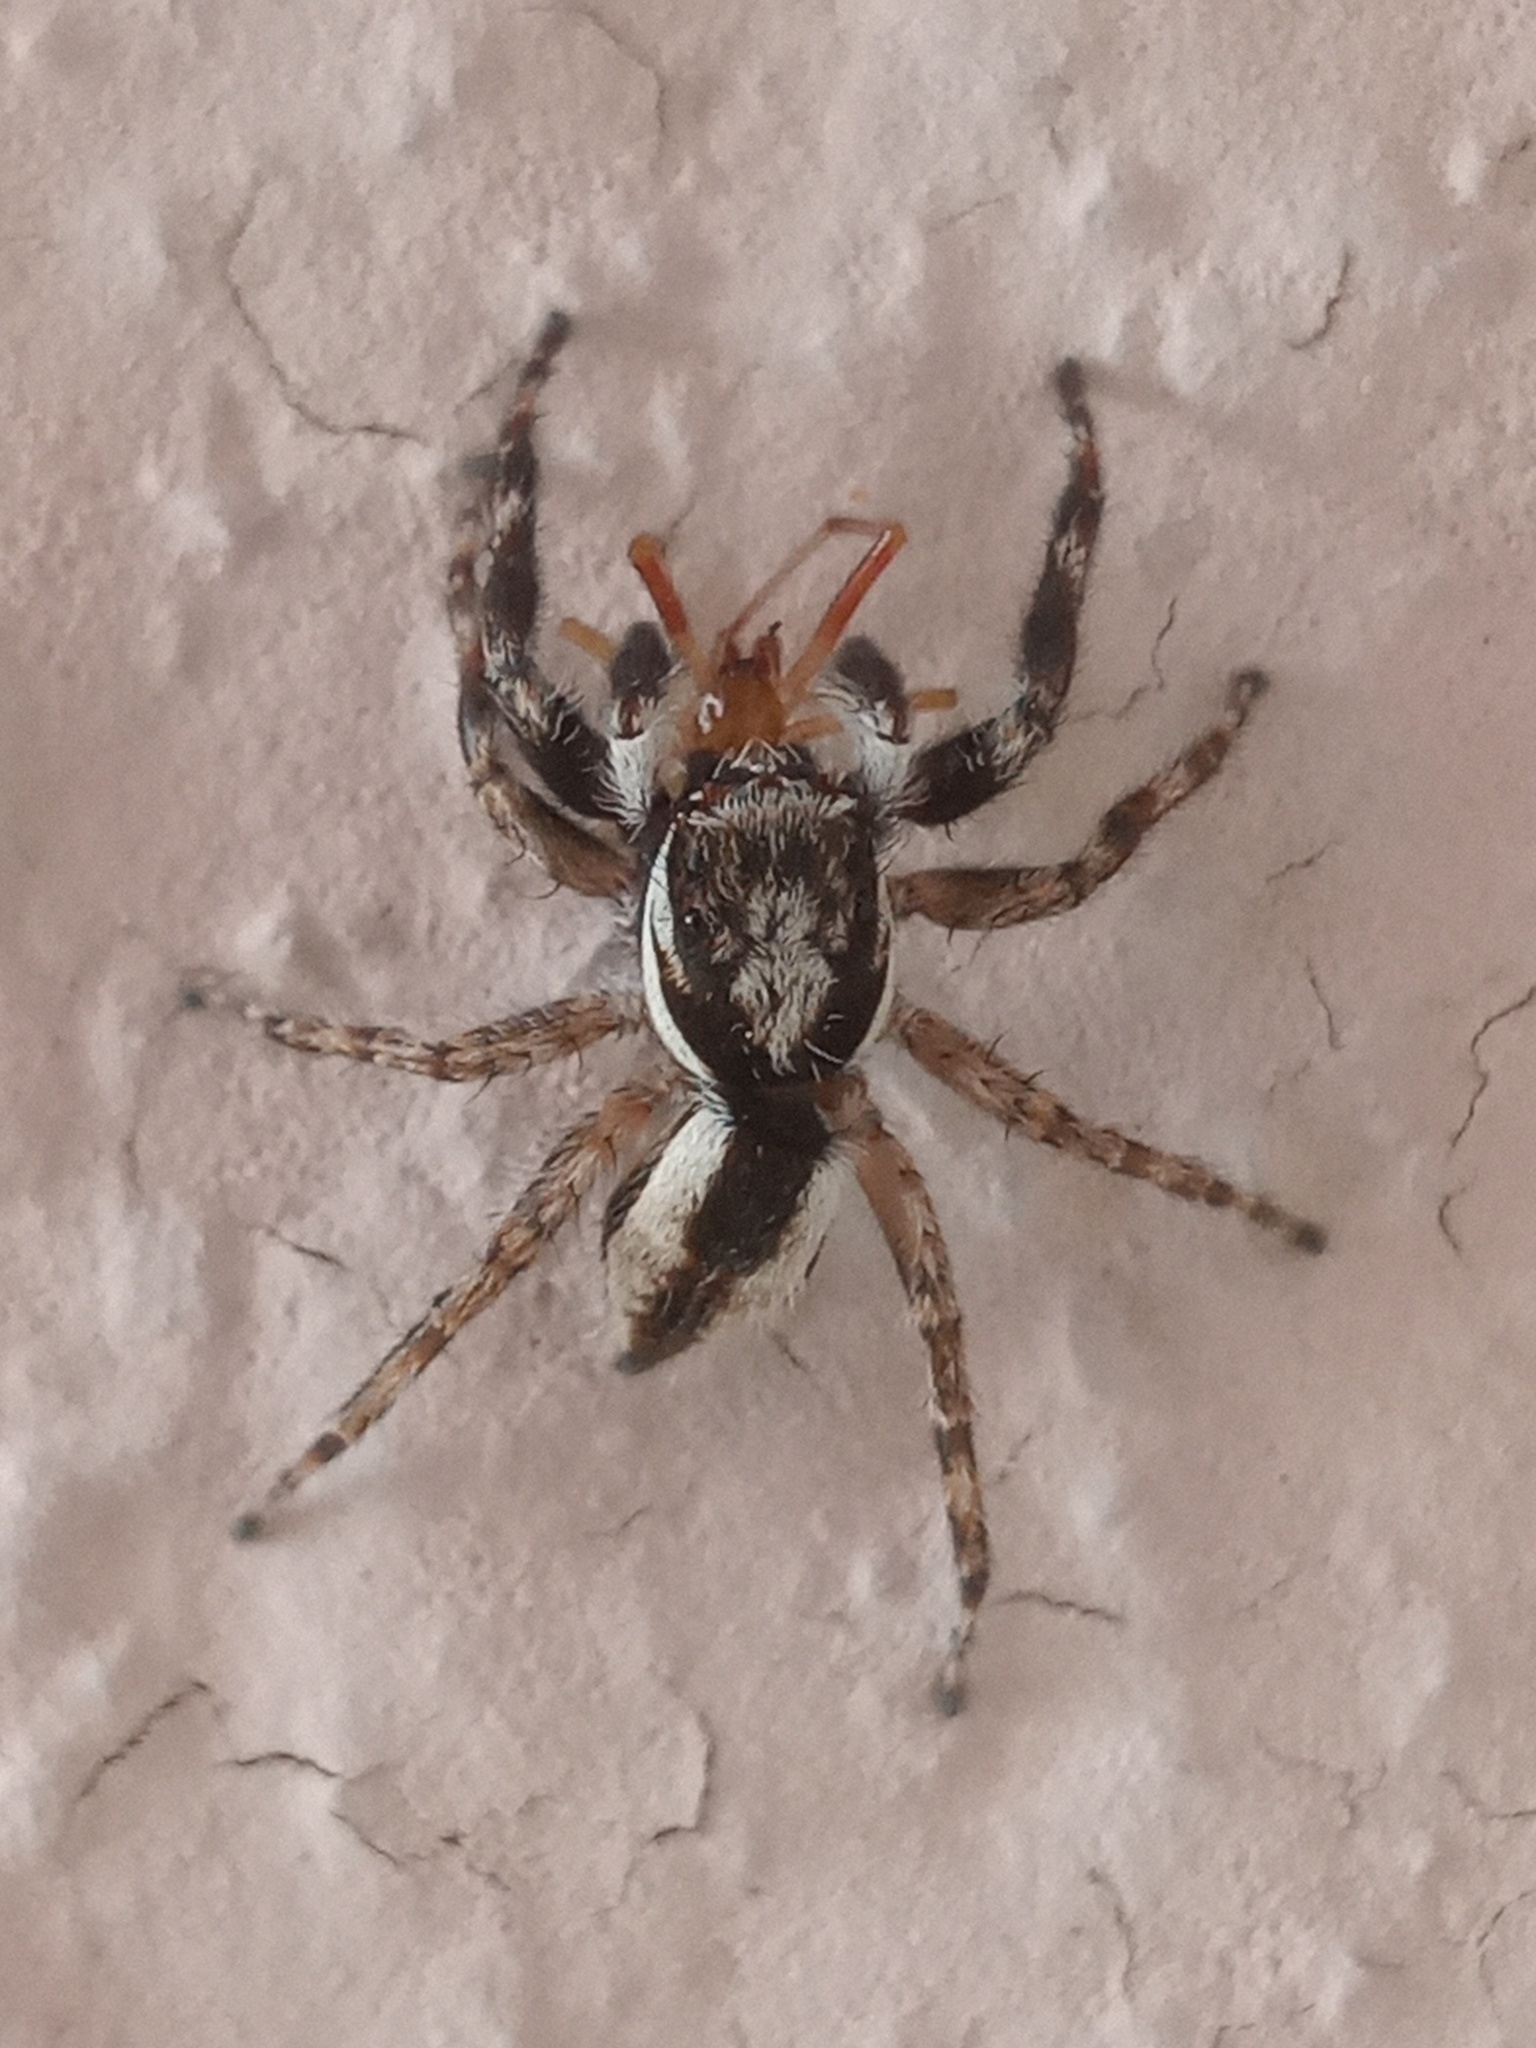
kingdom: Animalia
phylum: Arthropoda
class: Arachnida
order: Araneae
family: Salticidae
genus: Menemerus
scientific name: Menemerus bivittatus
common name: Gray wall jumper
